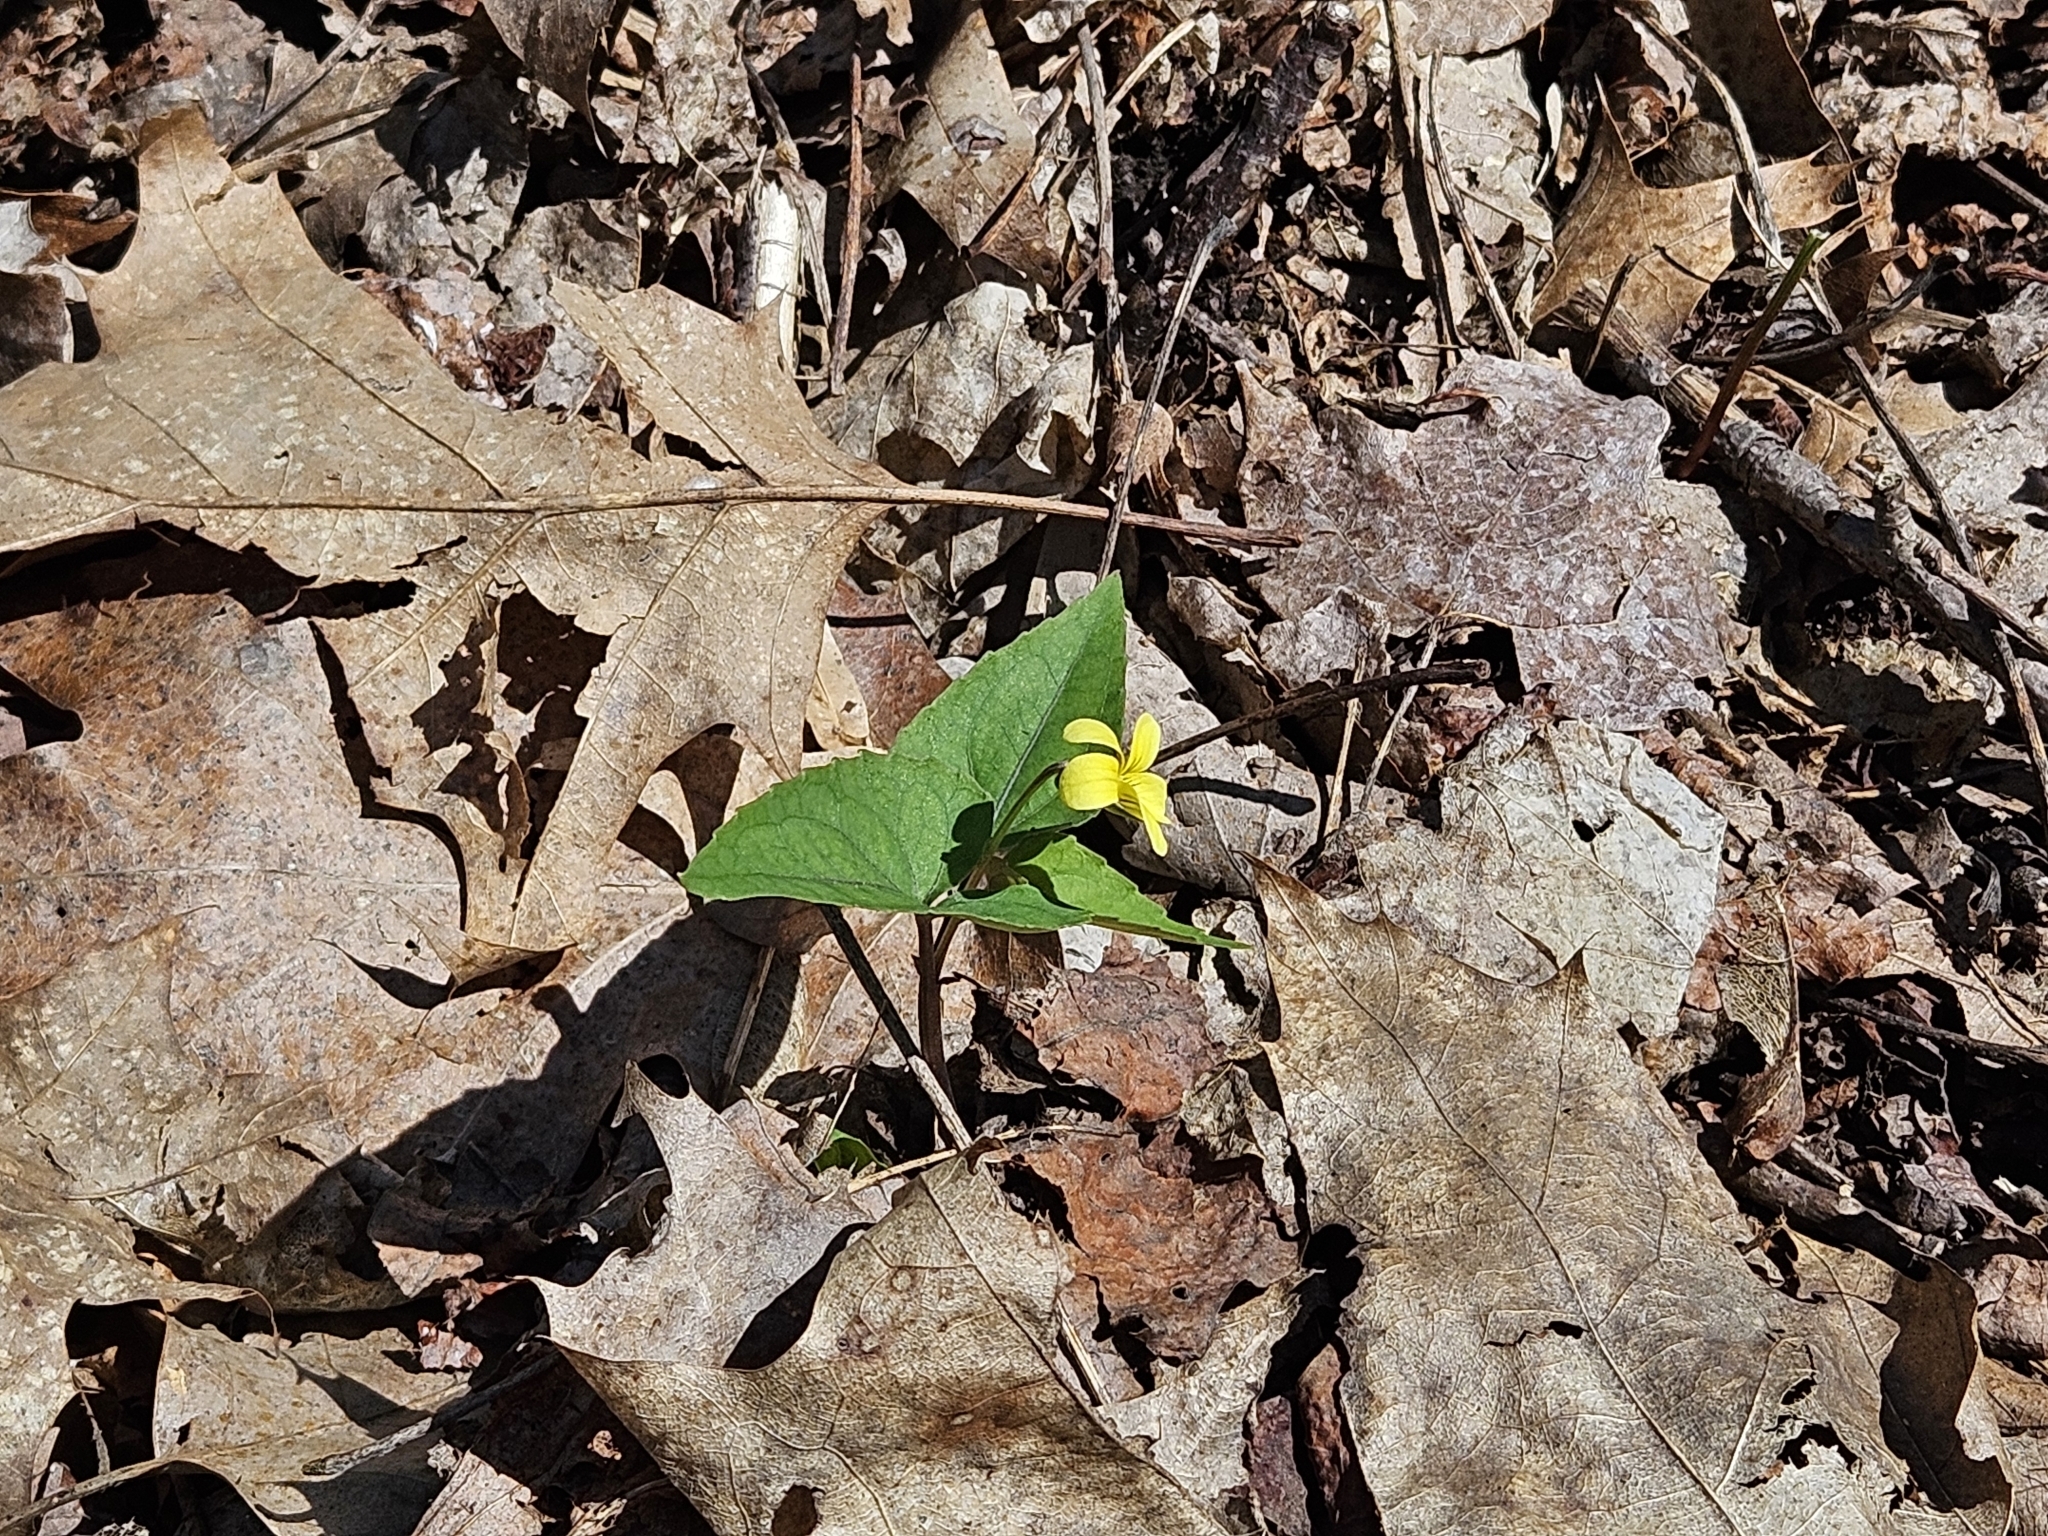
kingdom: Plantae
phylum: Tracheophyta
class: Magnoliopsida
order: Malpighiales
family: Violaceae
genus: Viola
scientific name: Viola hastata
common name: Spear-leaf violet
